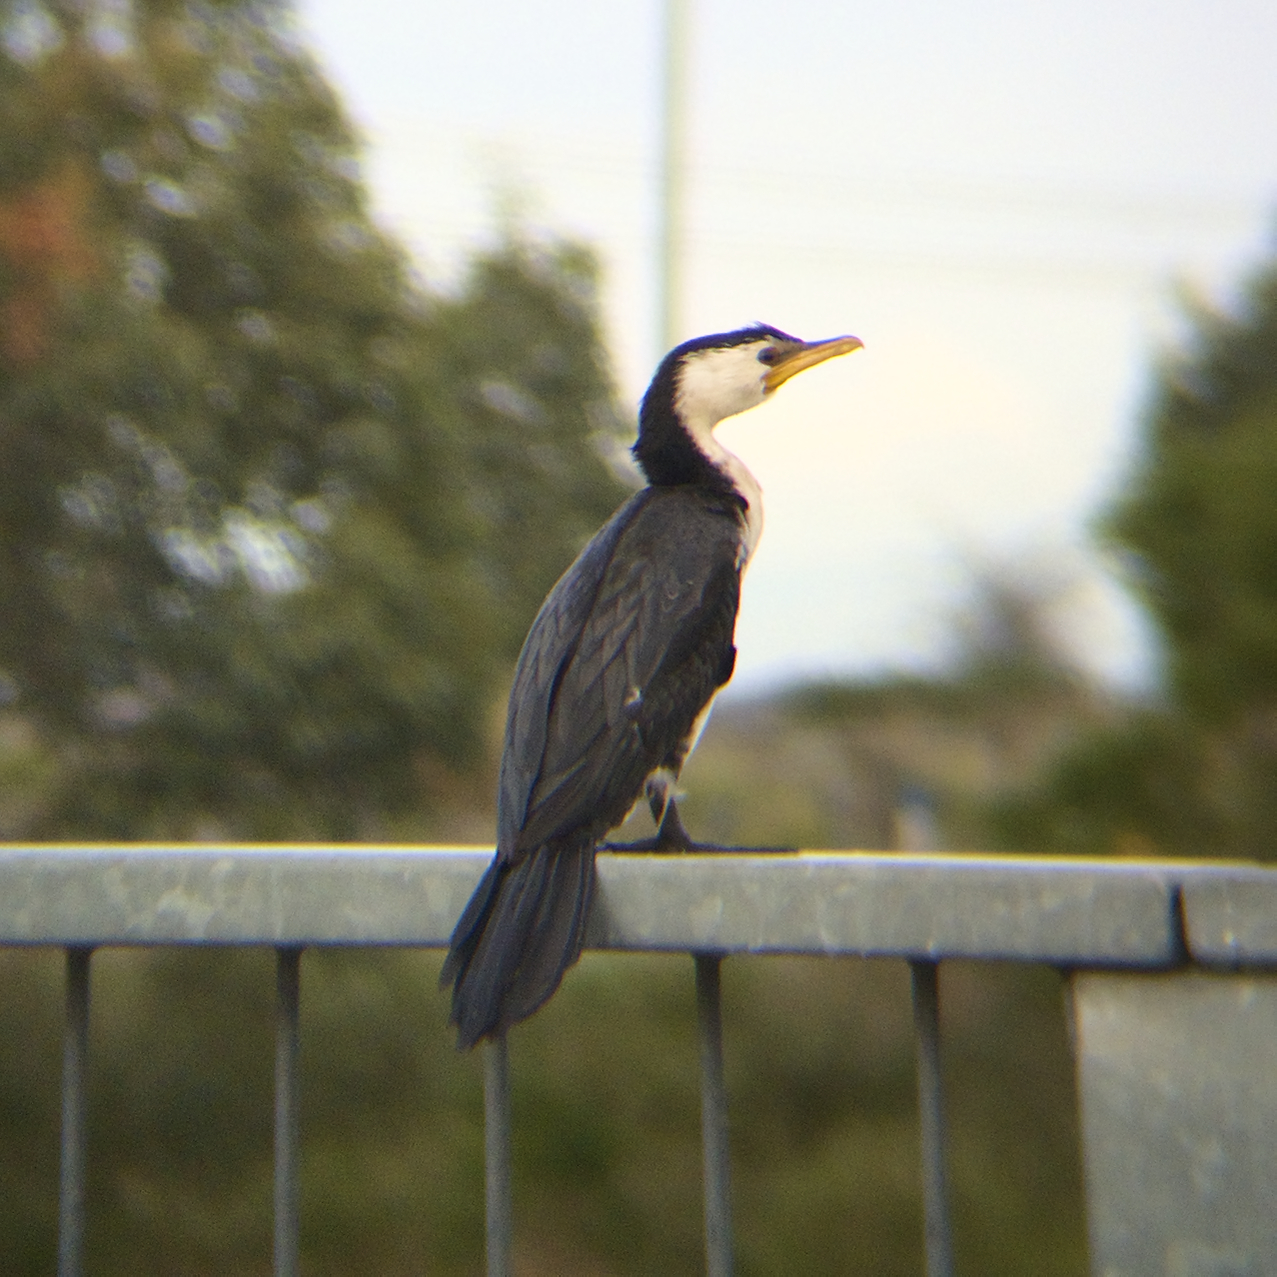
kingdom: Animalia
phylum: Chordata
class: Aves
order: Suliformes
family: Phalacrocoracidae
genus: Microcarbo
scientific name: Microcarbo melanoleucos
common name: Little pied cormorant
